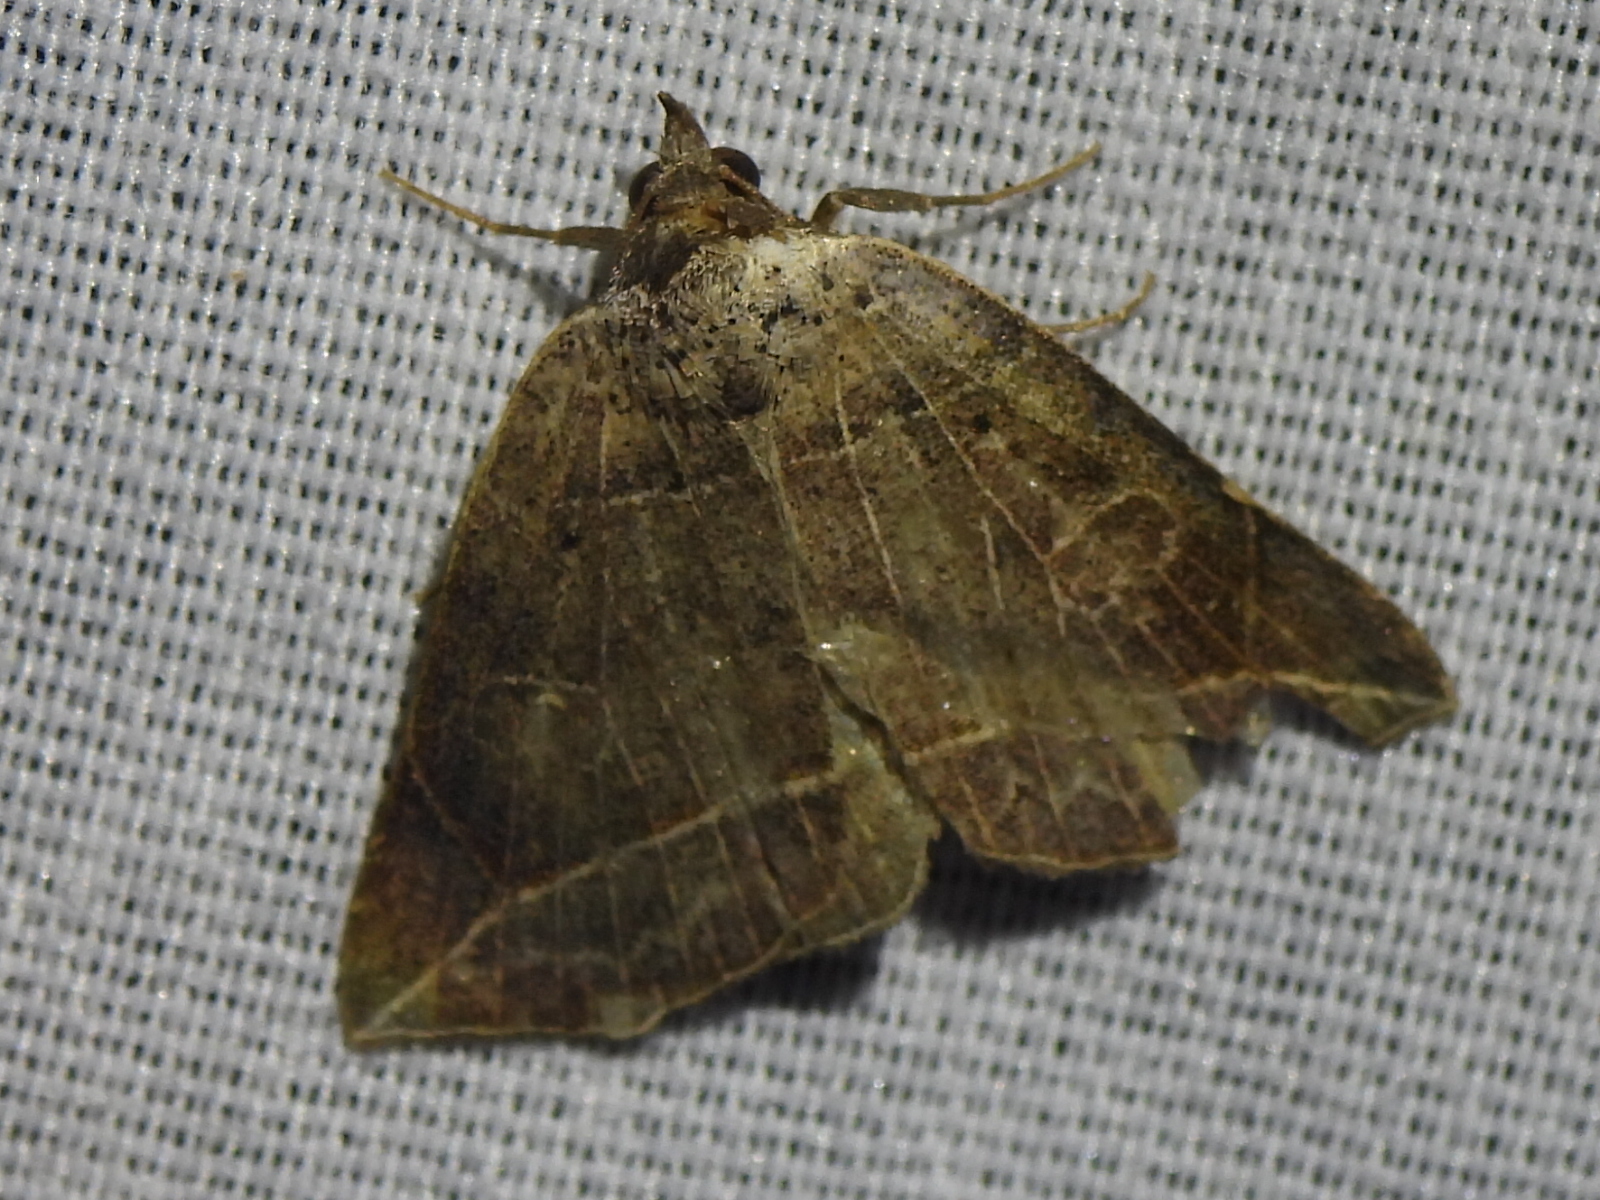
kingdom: Animalia
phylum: Arthropoda
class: Insecta
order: Lepidoptera
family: Erebidae
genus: Isogona
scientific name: Isogona tenuis
